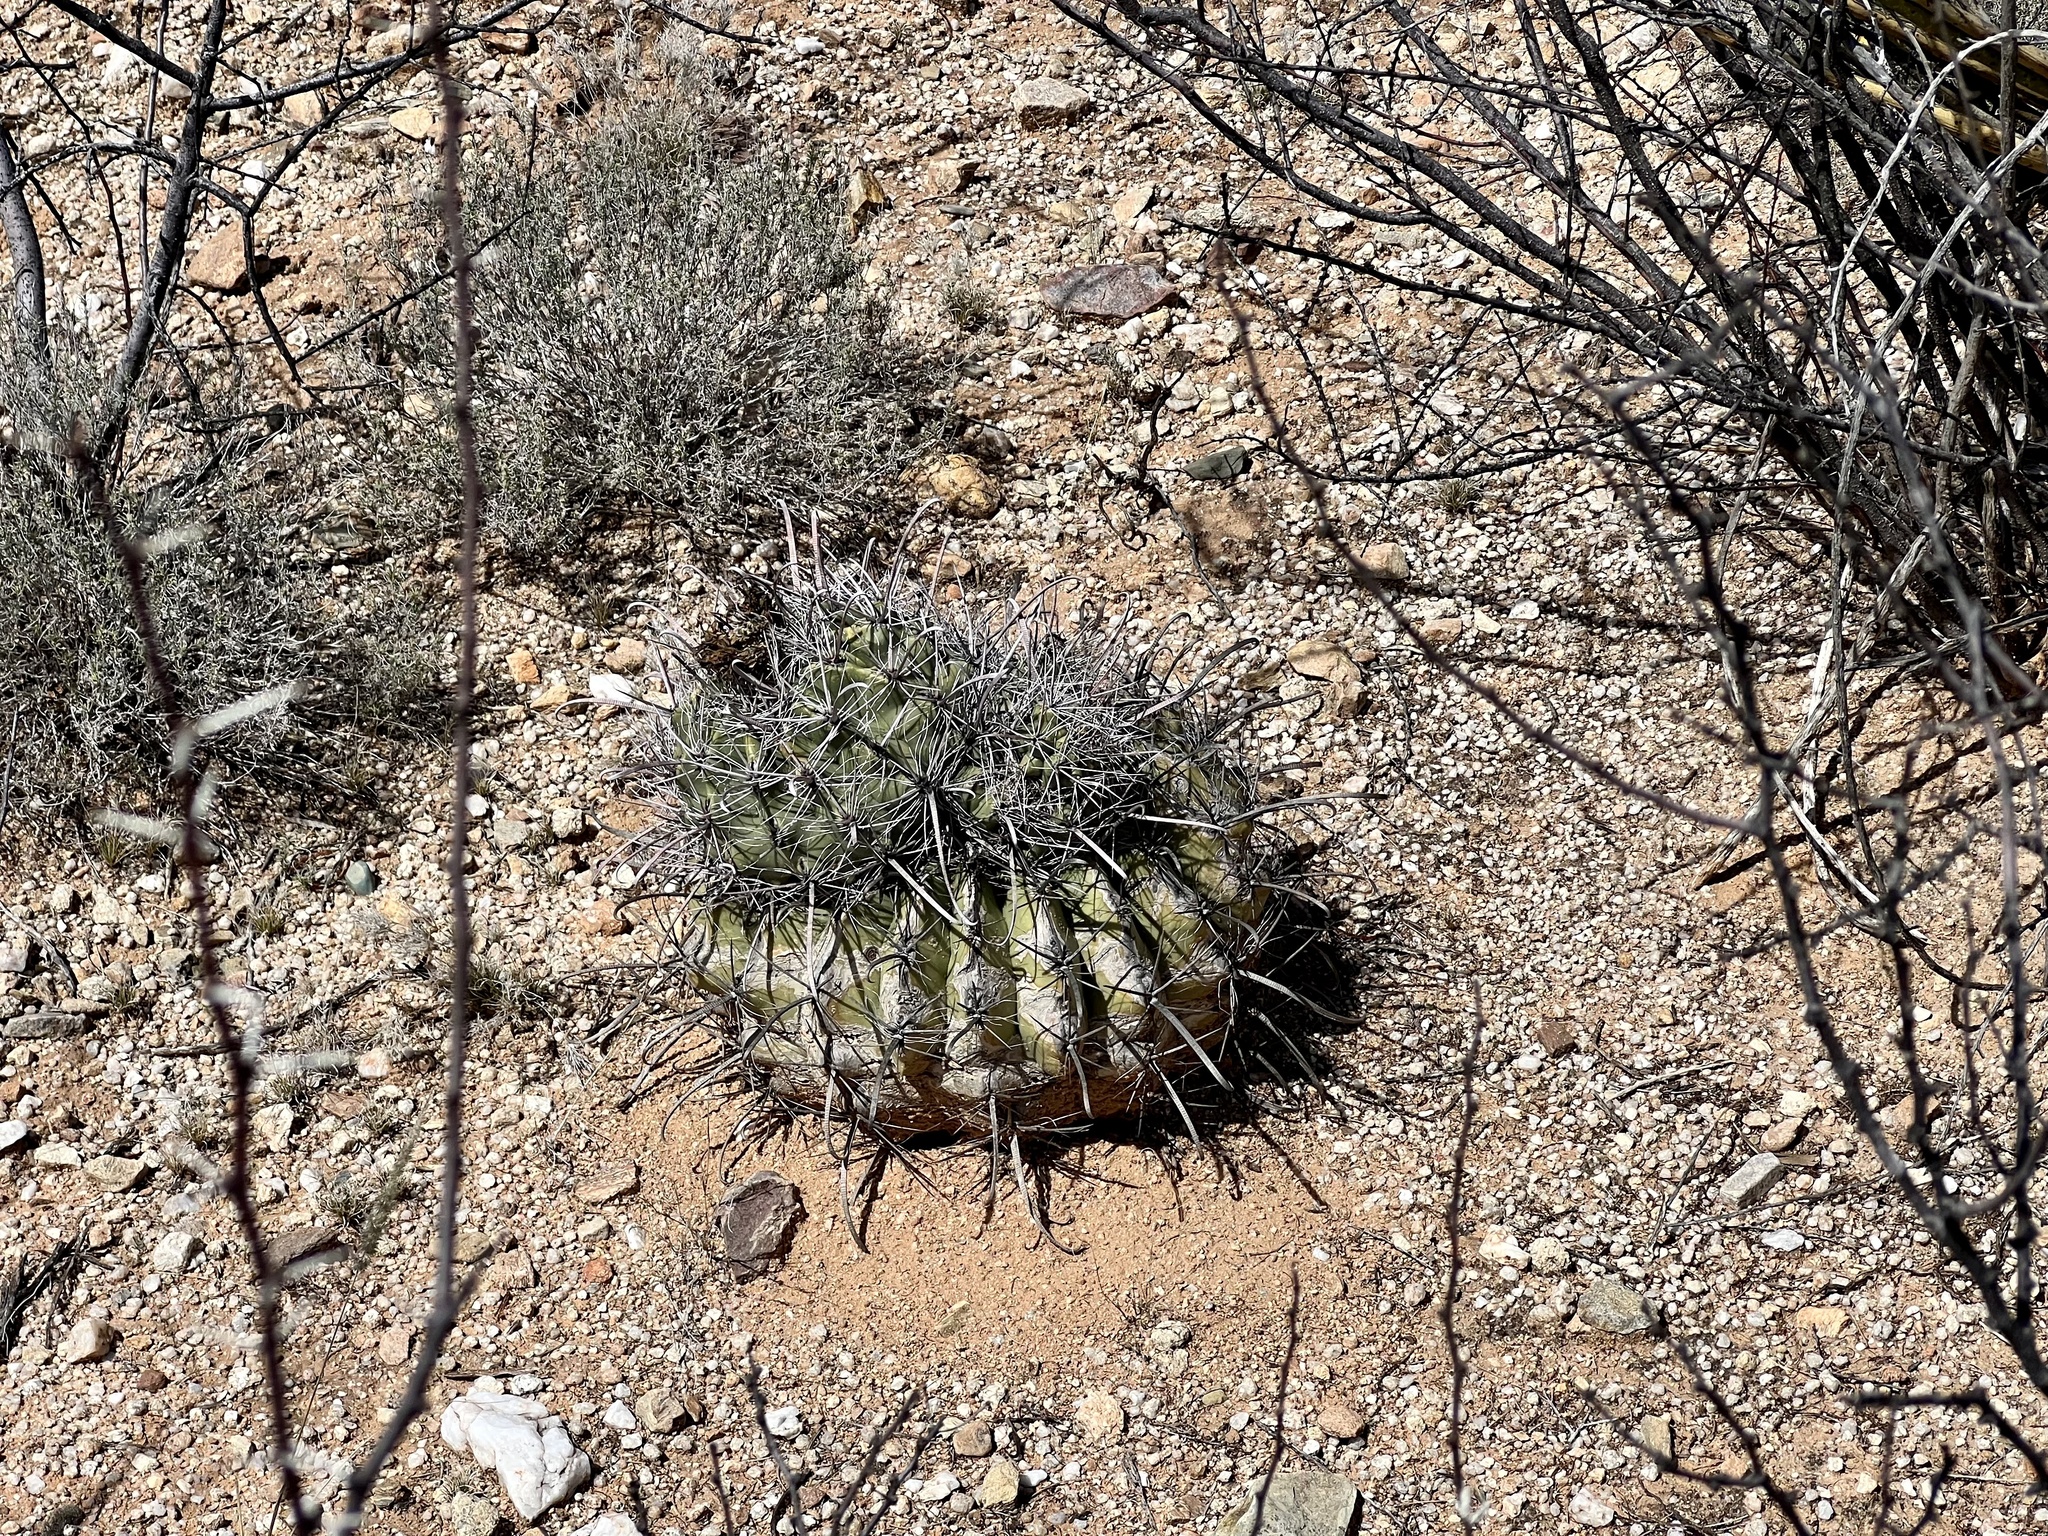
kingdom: Plantae
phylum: Tracheophyta
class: Magnoliopsida
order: Caryophyllales
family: Cactaceae
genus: Ferocactus
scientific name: Ferocactus wislizeni
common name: Candy barrel cactus
